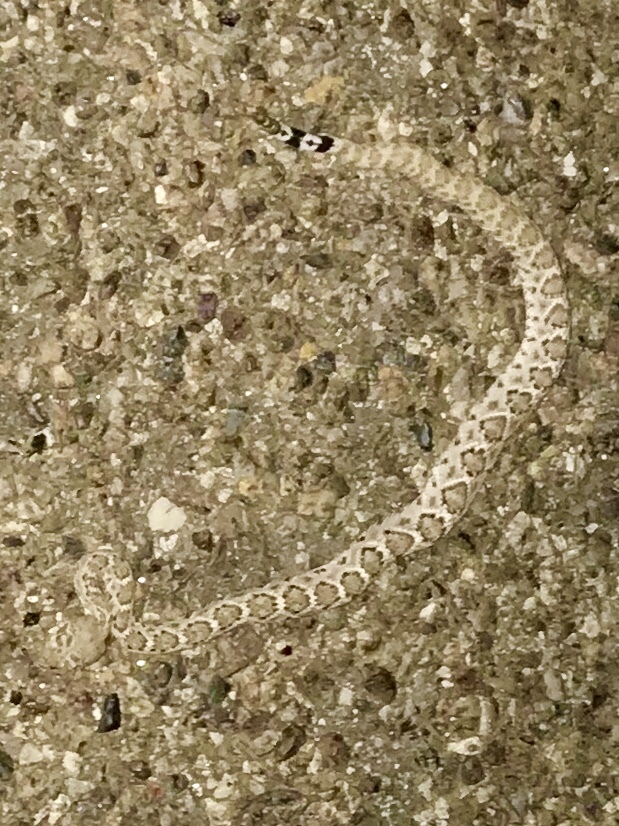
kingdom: Animalia
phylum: Chordata
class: Squamata
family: Viperidae
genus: Crotalus
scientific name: Crotalus atrox
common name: Western diamond-backed rattlesnake
